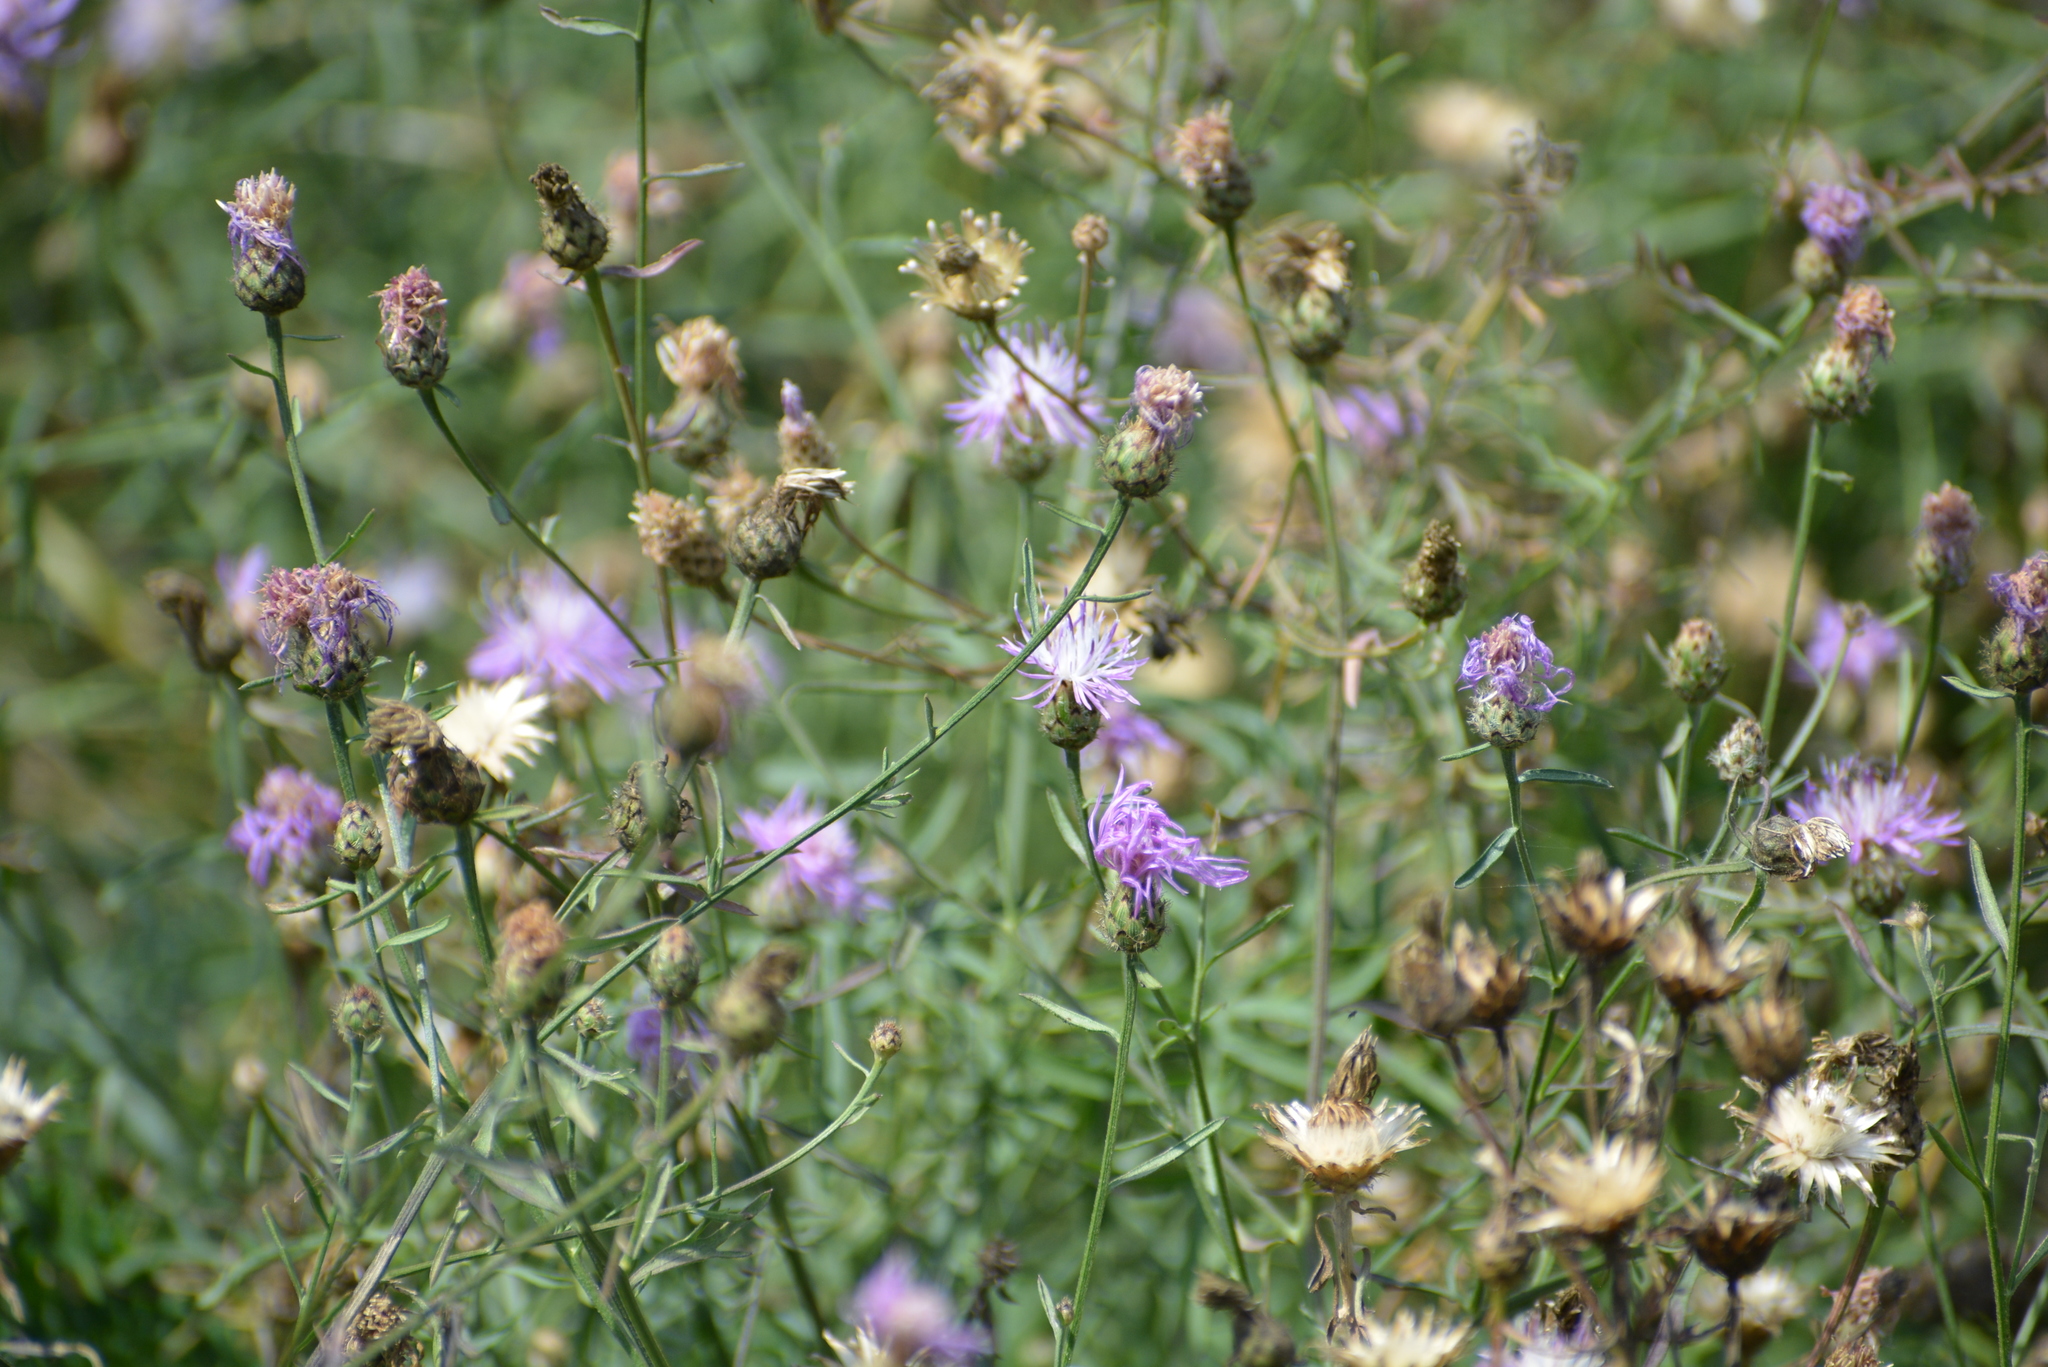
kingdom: Plantae
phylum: Tracheophyta
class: Magnoliopsida
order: Asterales
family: Asteraceae
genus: Centaurea
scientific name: Centaurea stoebe
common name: Spotted knapweed
